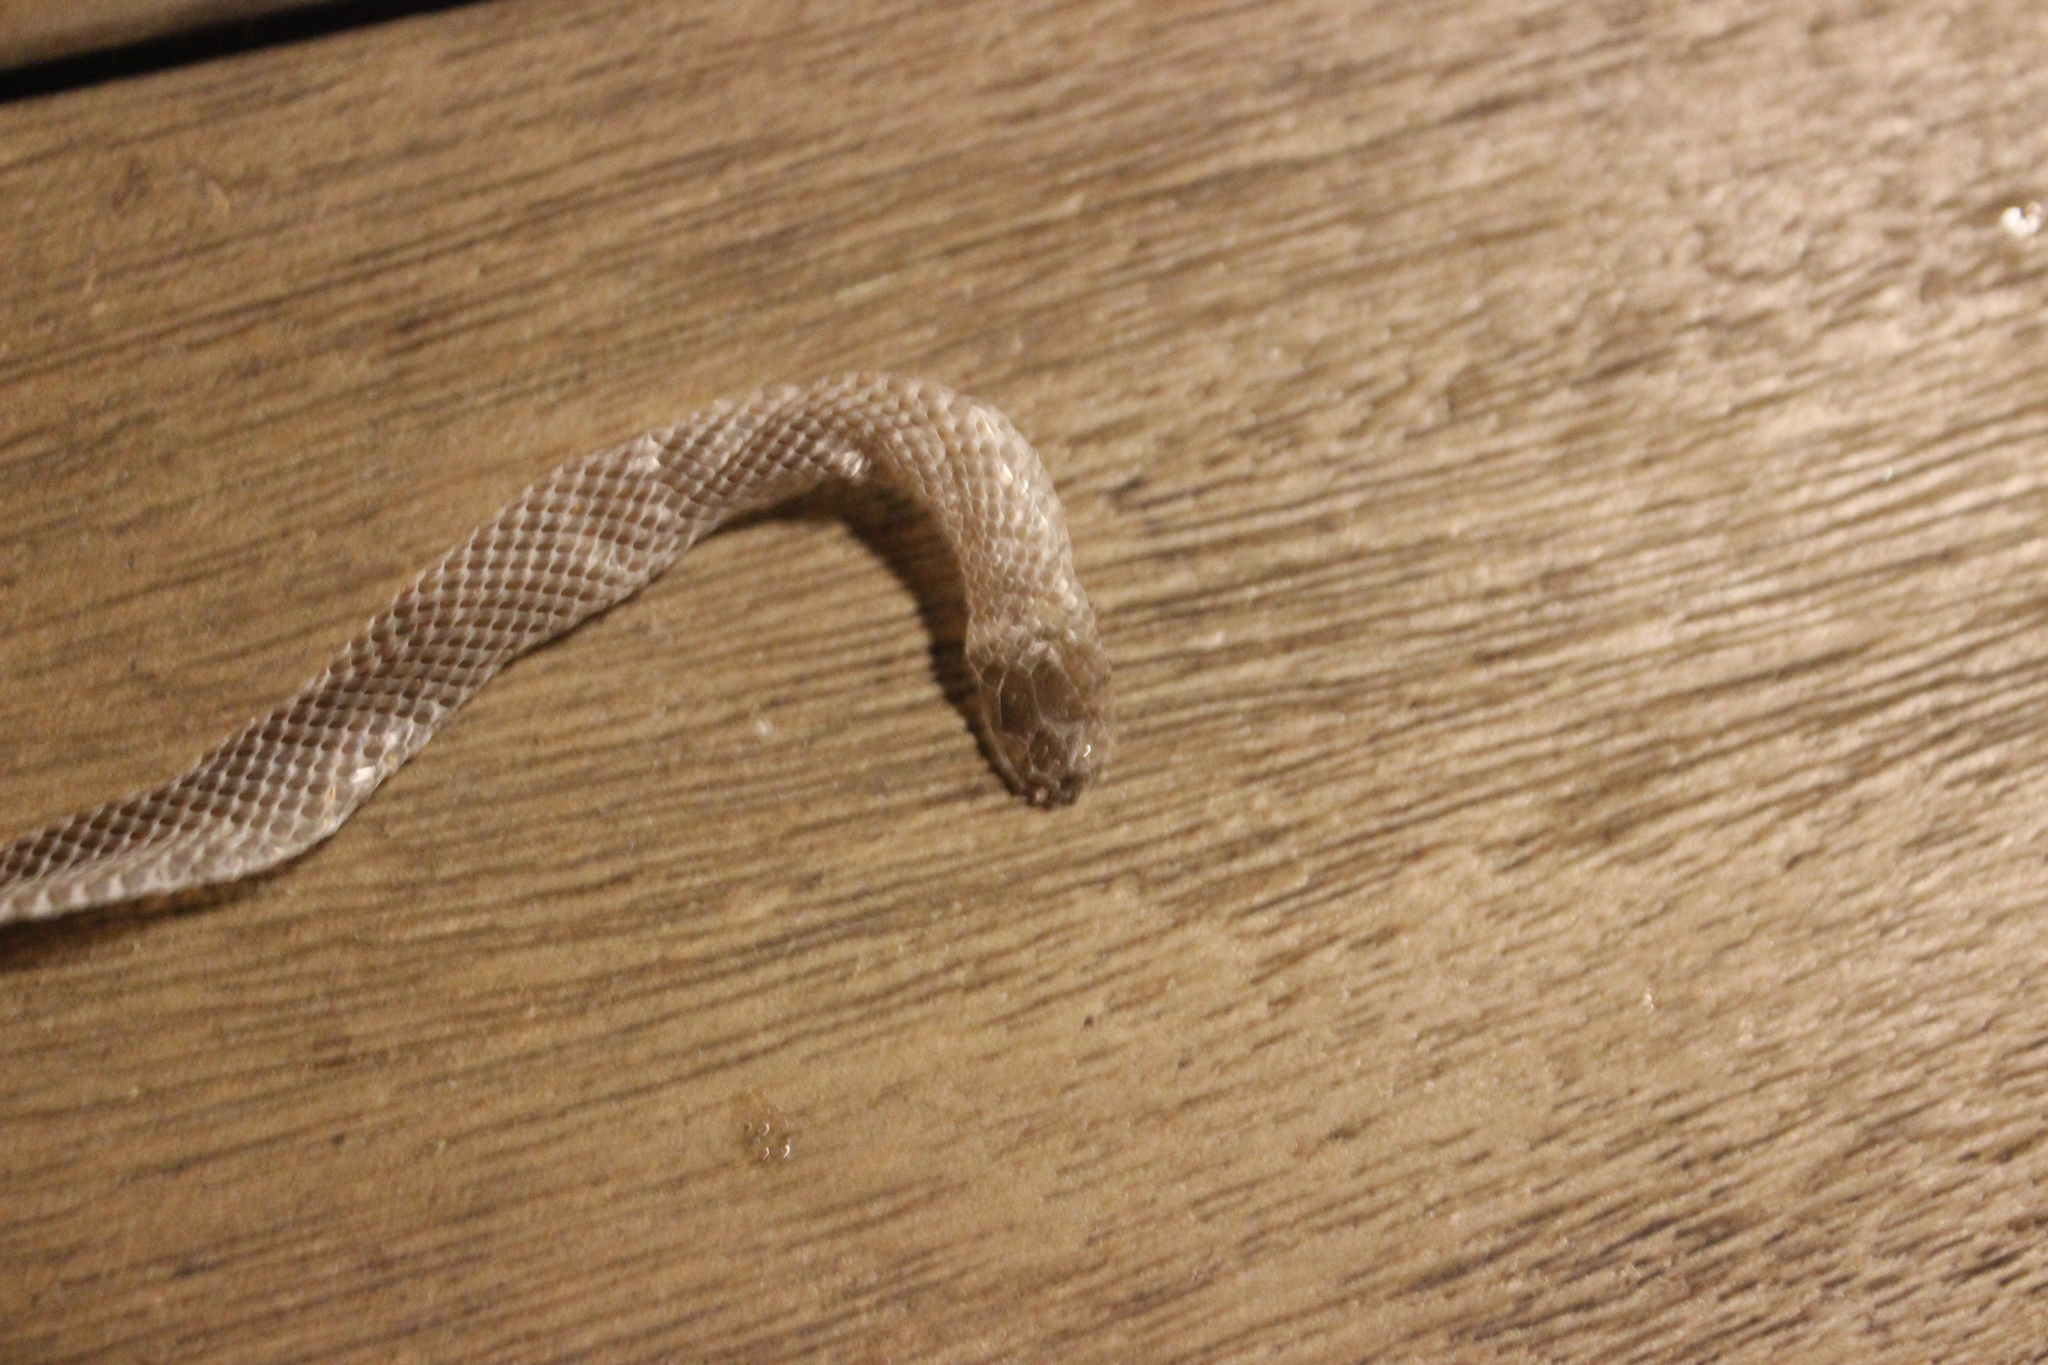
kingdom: Animalia
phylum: Chordata
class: Squamata
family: Colubridae
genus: Diadophis
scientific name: Diadophis punctatus
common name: Ringneck snake
